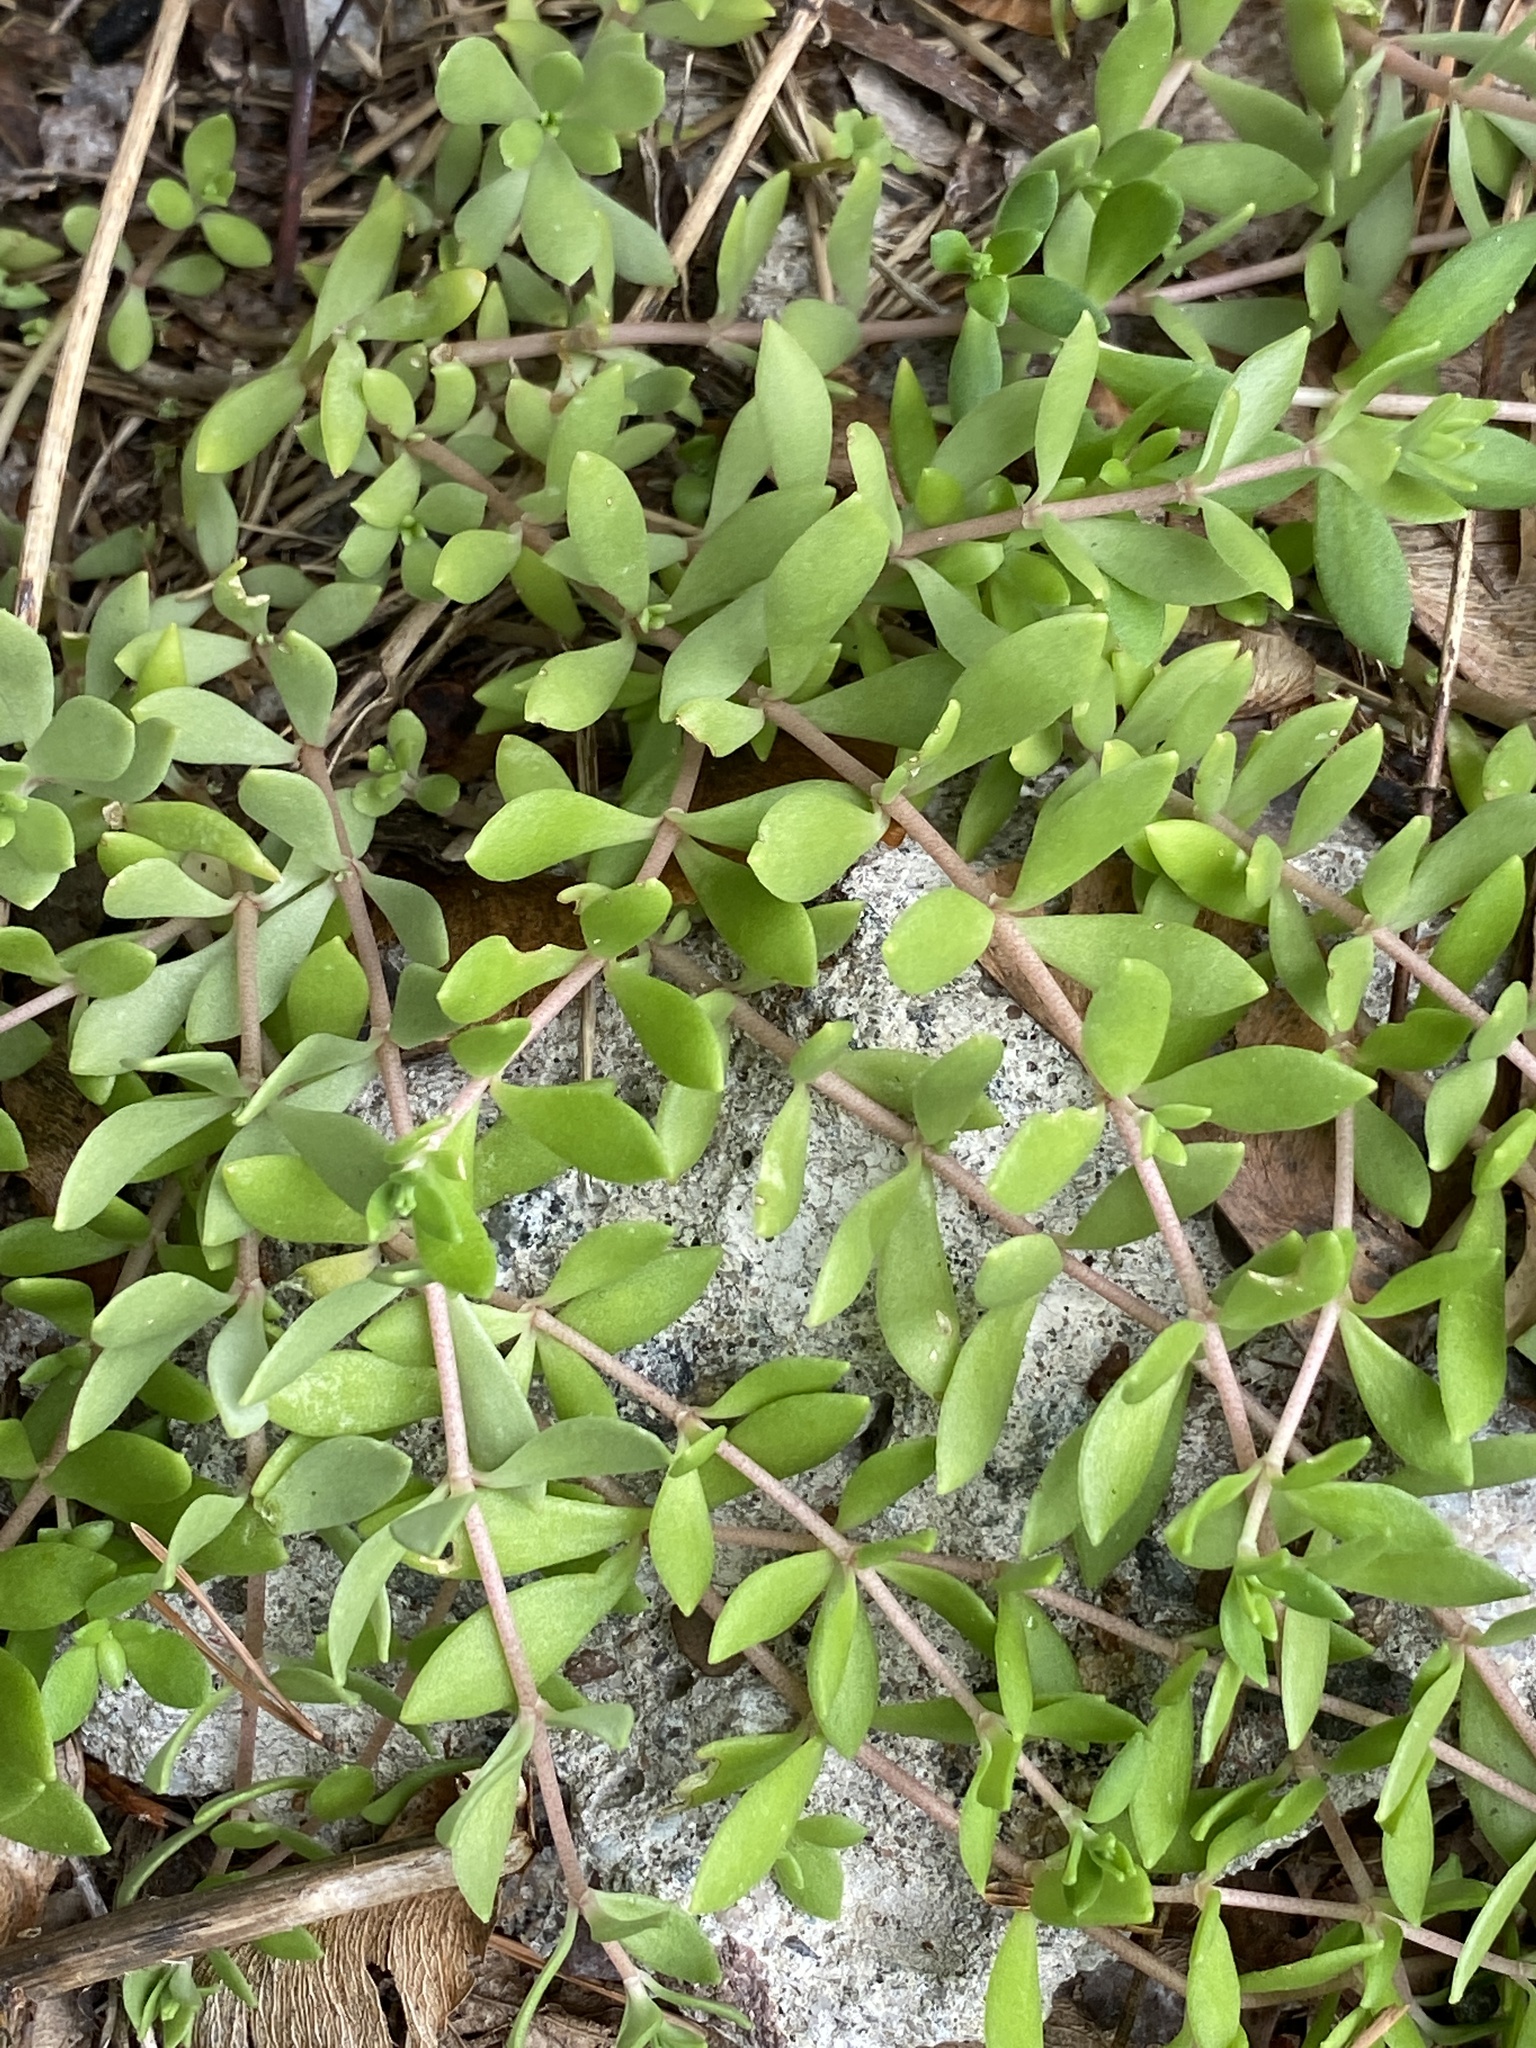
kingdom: Plantae
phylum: Tracheophyta
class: Magnoliopsida
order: Saxifragales
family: Crassulaceae
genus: Sedum
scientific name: Sedum sarmentosum
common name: Stringy stonecrop
